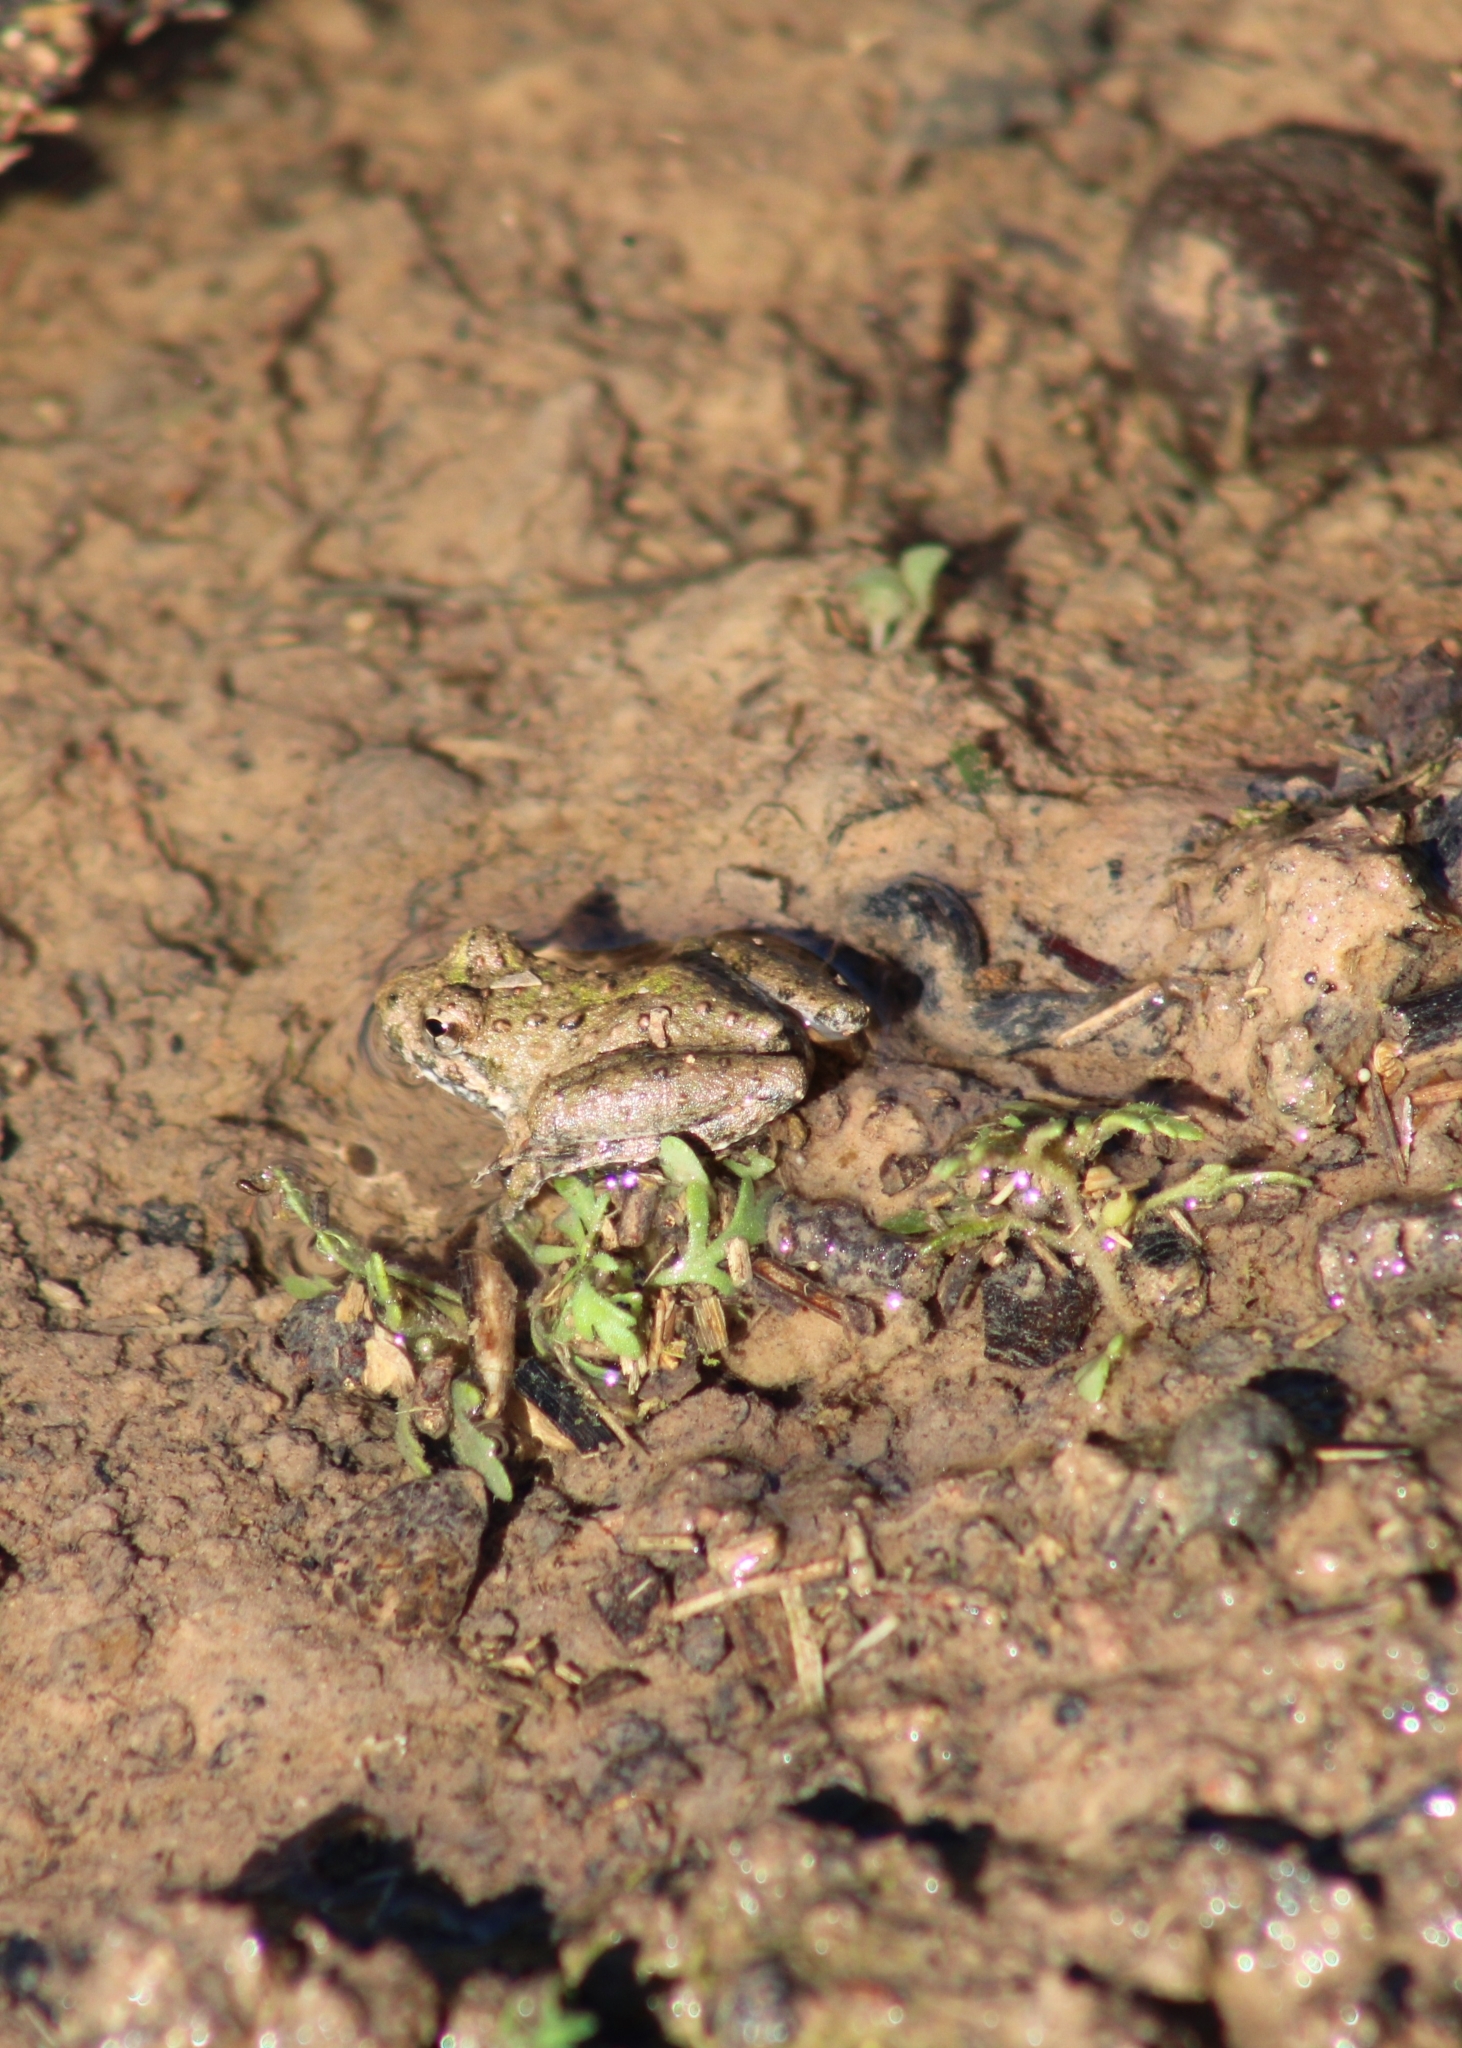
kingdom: Animalia
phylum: Chordata
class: Amphibia
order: Anura
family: Hylidae
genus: Acris
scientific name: Acris blanchardi
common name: Blanchard's cricket frog
